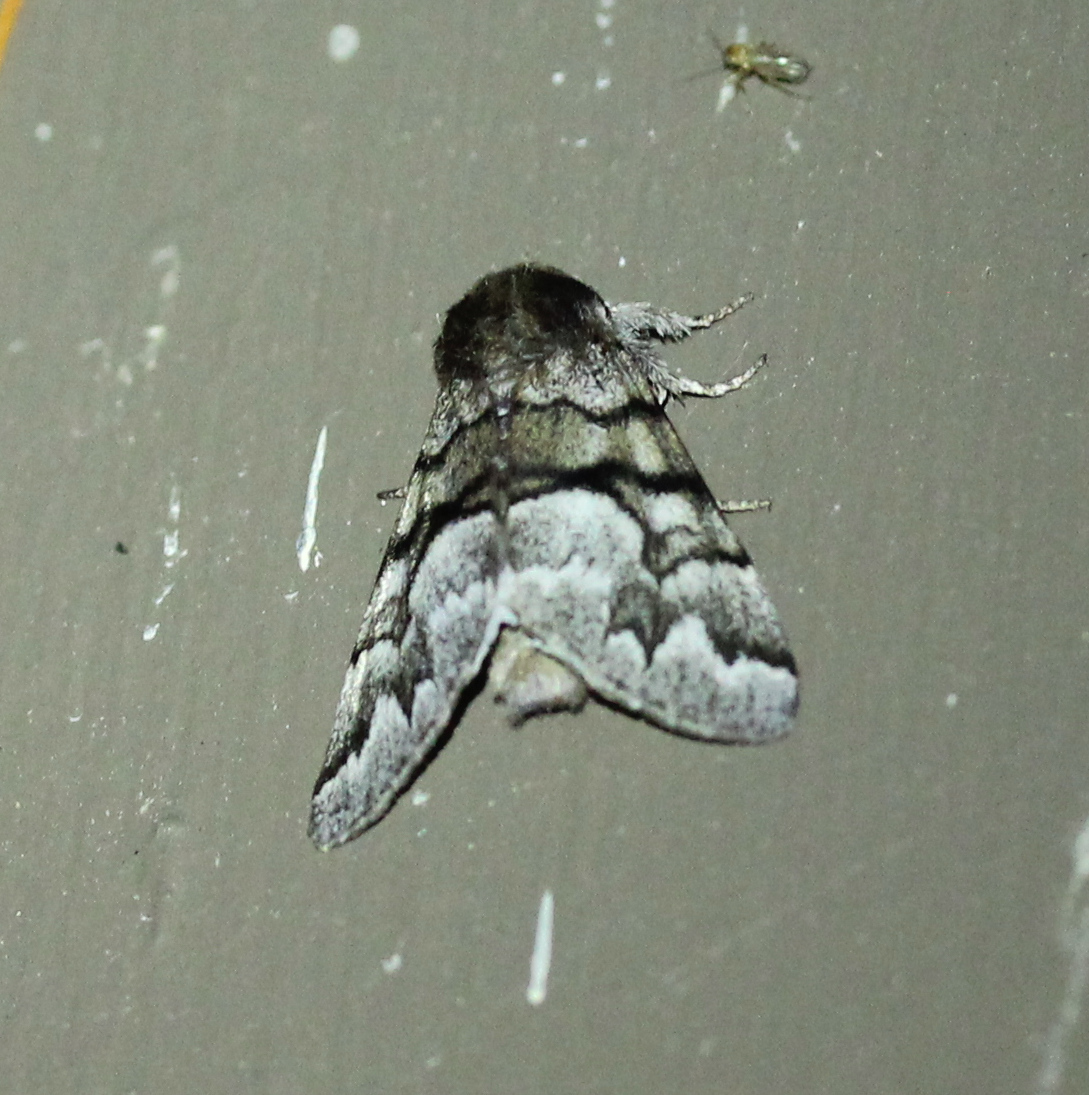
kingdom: Animalia
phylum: Arthropoda
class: Insecta
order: Lepidoptera
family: Noctuidae
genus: Panthea
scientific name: Panthea furcilla
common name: Eastern panthea moth
